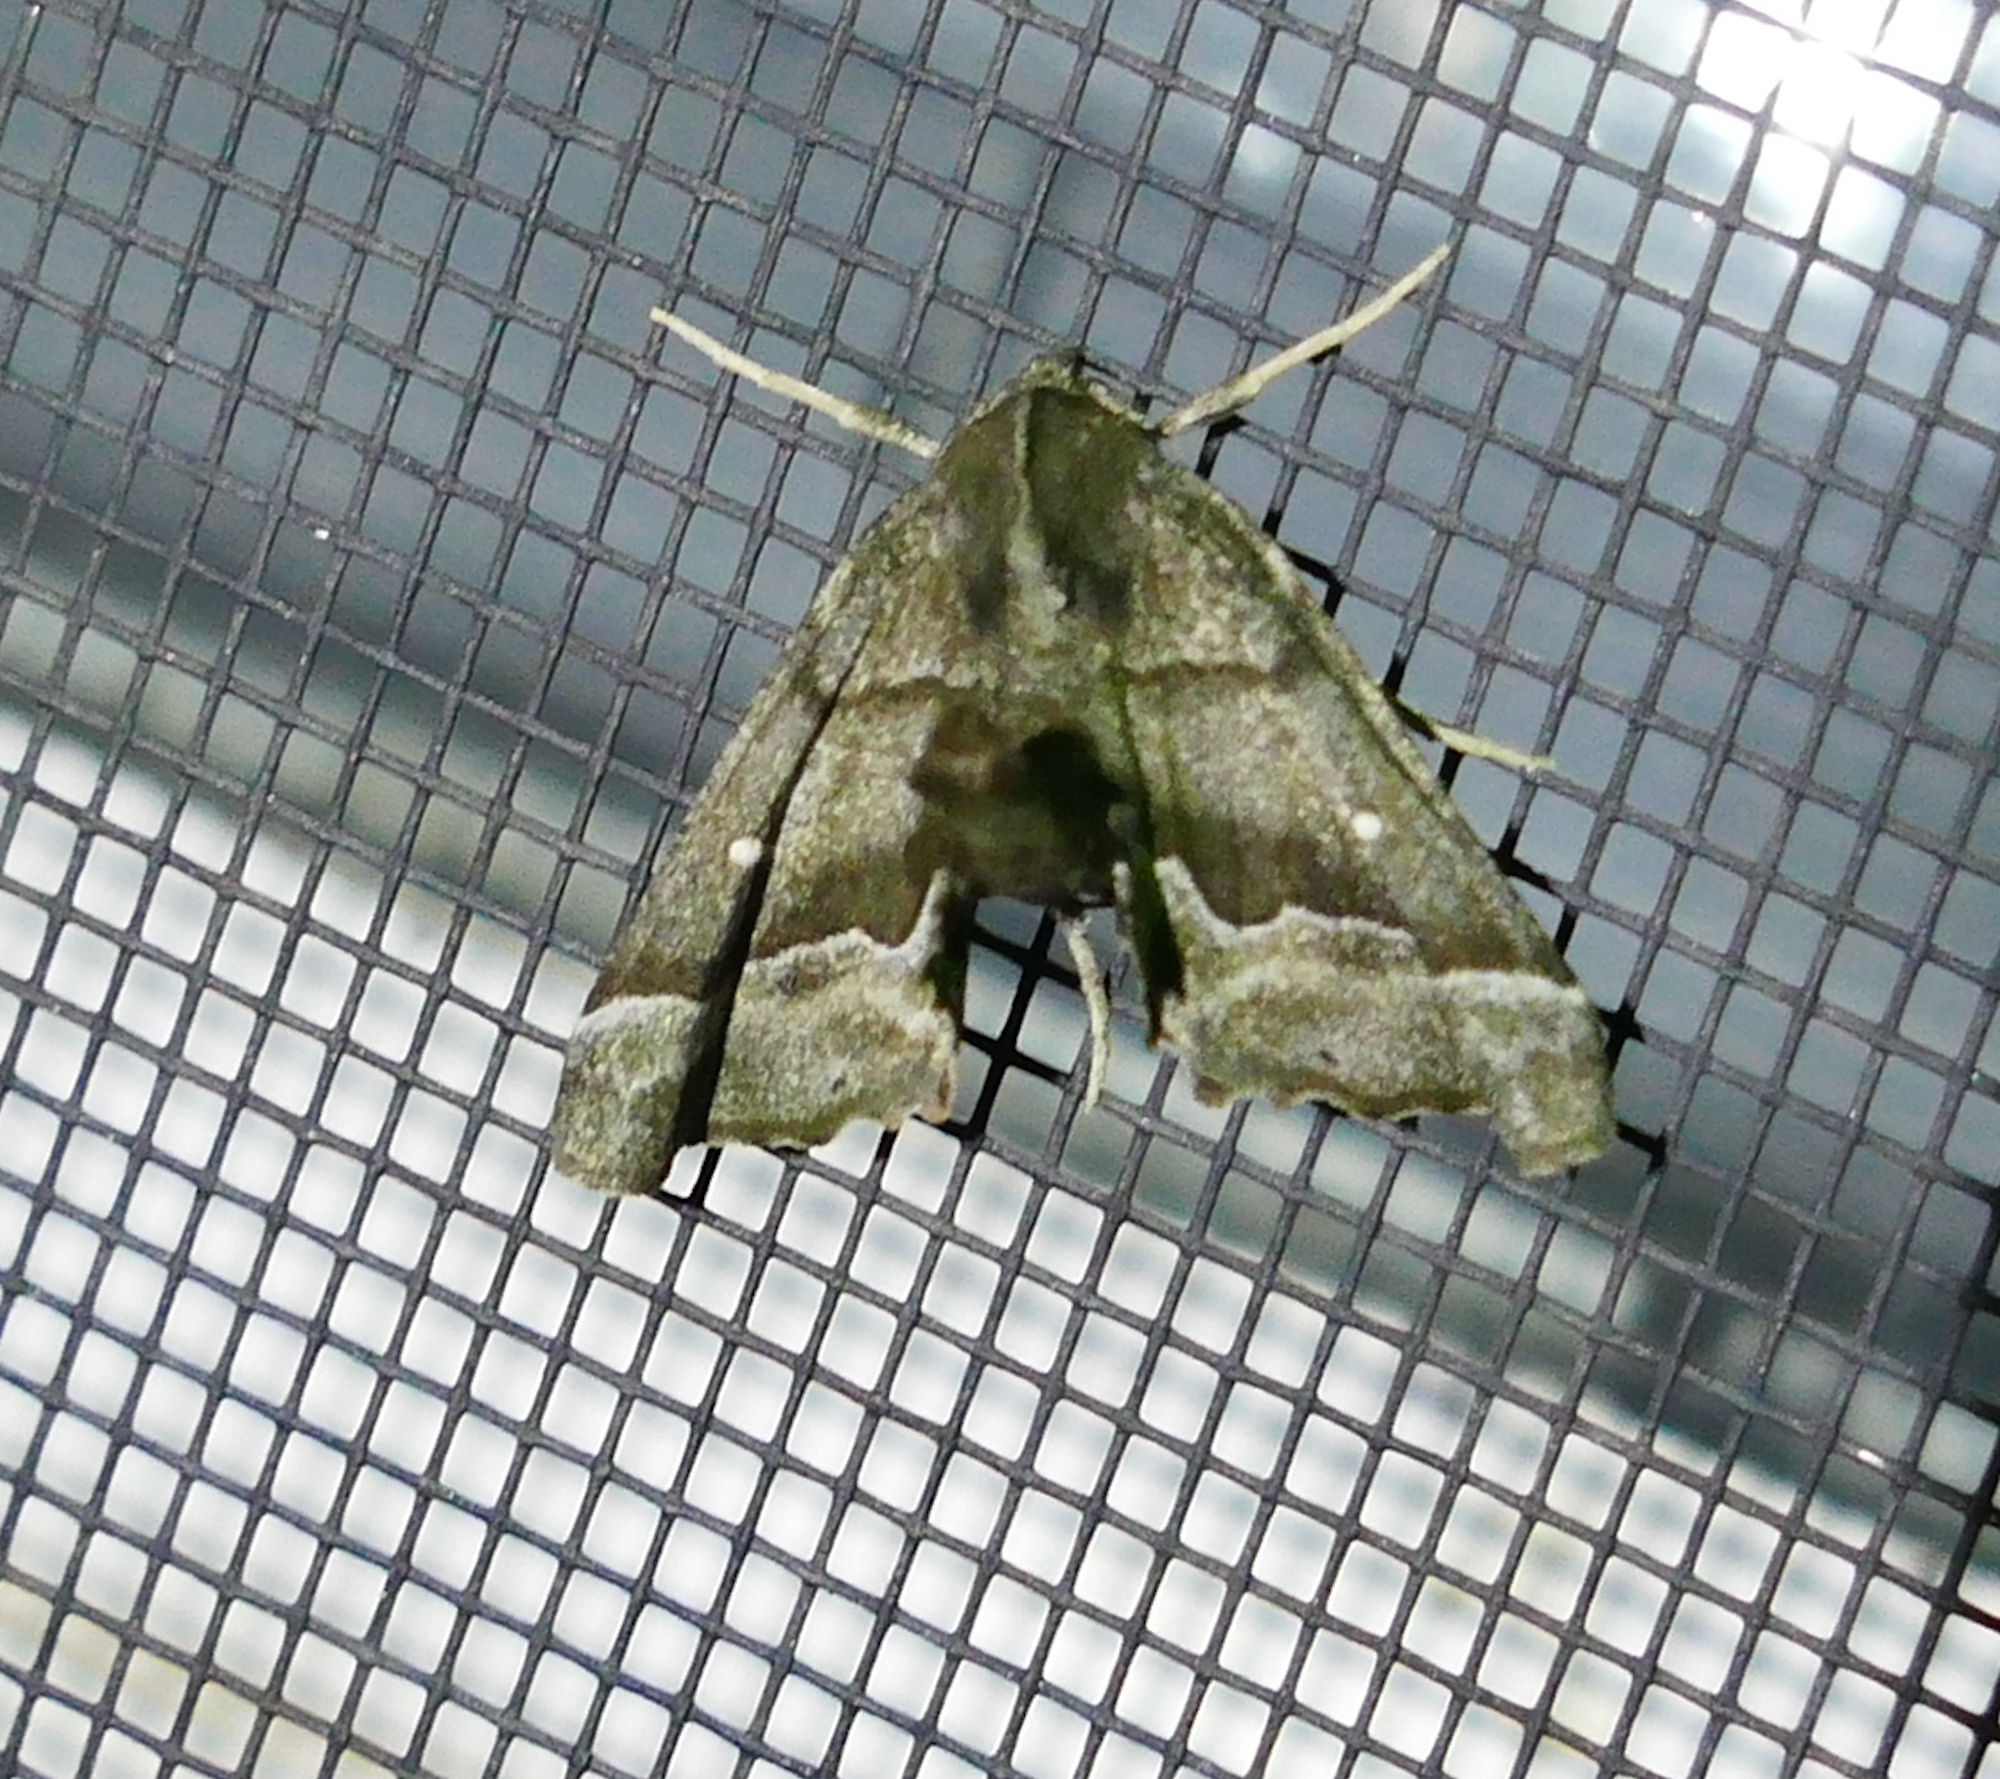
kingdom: Animalia
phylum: Arthropoda
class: Insecta
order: Lepidoptera
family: Geometridae
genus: Pero
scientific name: Pero meskaria
